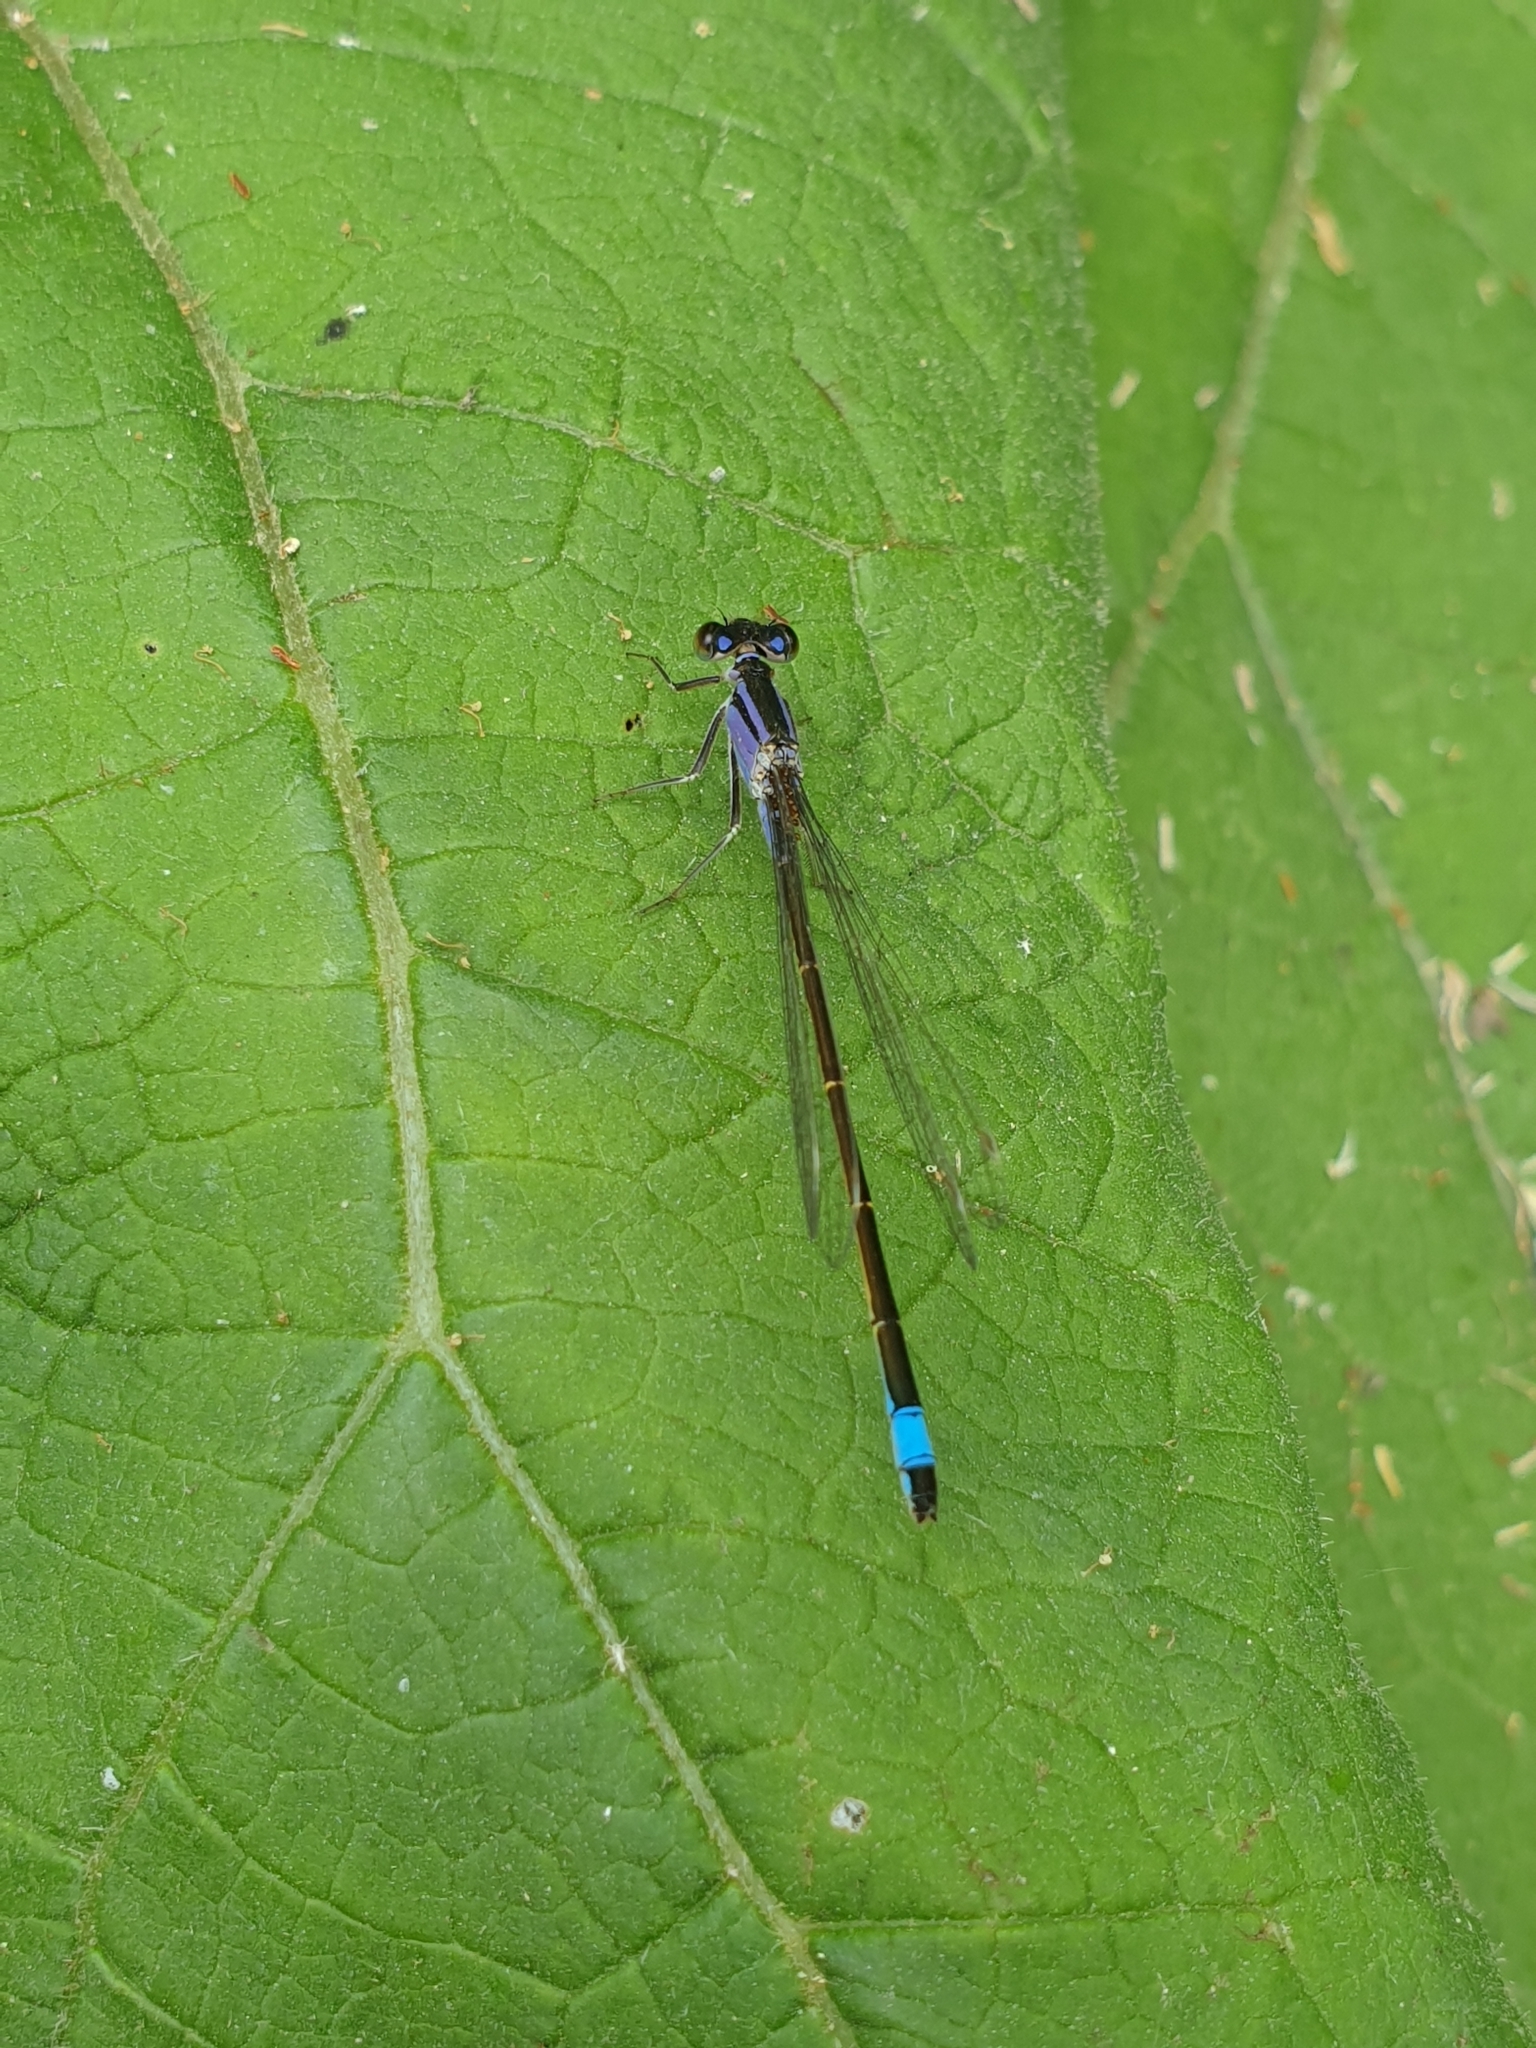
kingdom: Animalia
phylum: Arthropoda
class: Insecta
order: Odonata
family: Coenagrionidae
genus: Ischnura
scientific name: Ischnura elegans
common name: Blue-tailed damselfly
